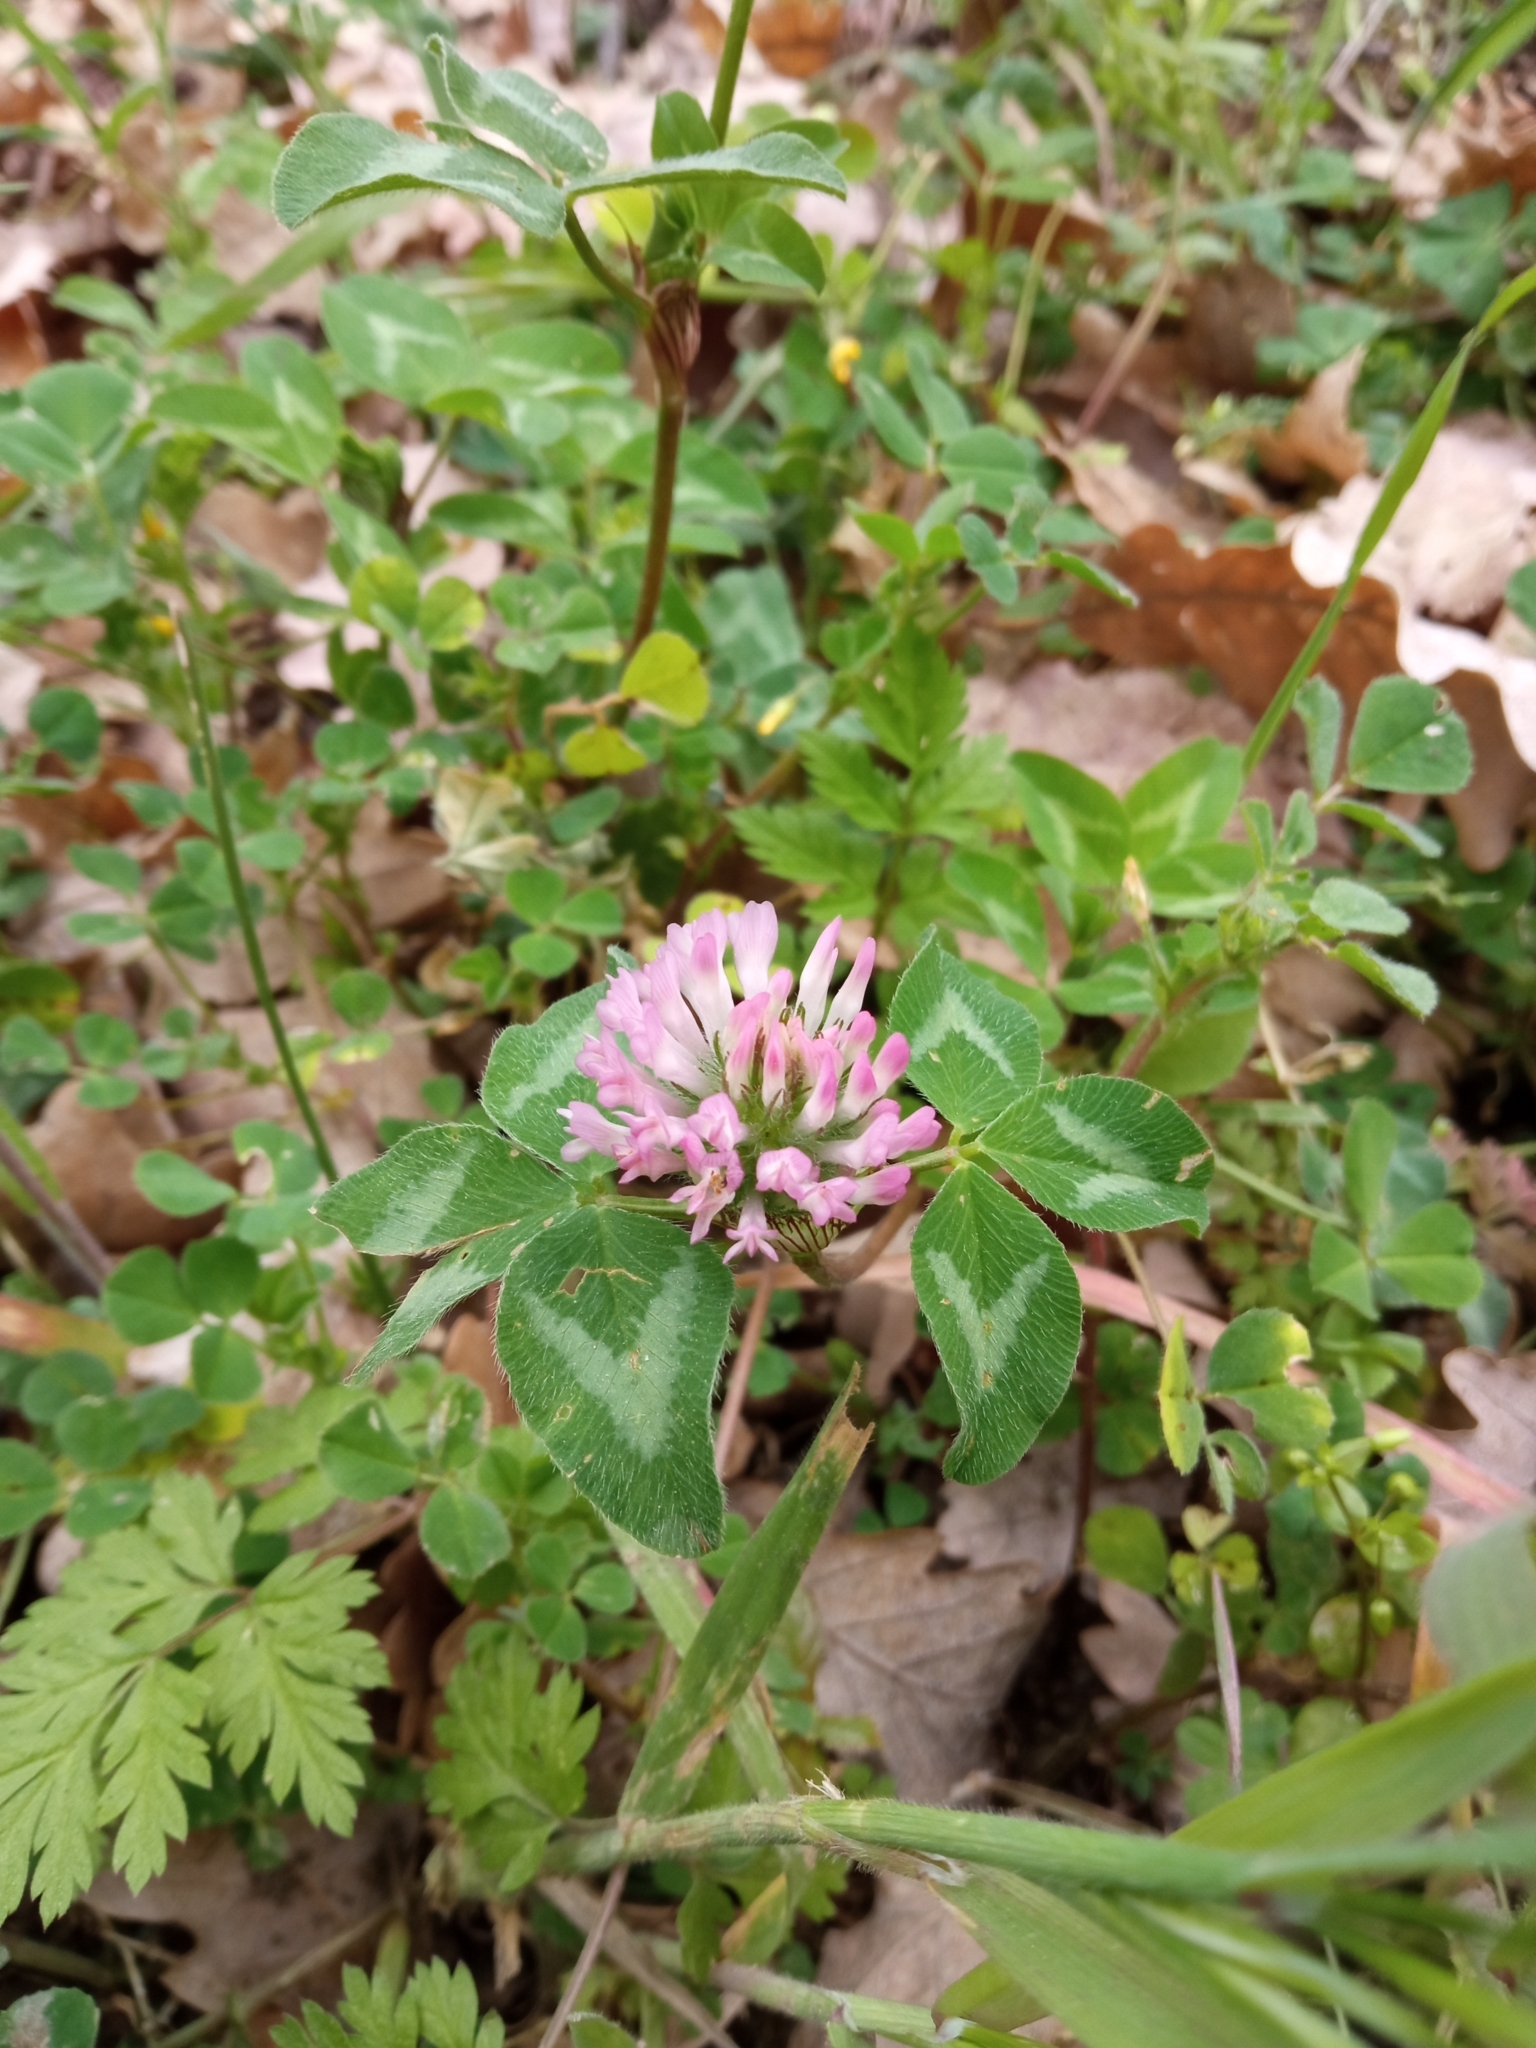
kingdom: Plantae
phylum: Tracheophyta
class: Magnoliopsida
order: Fabales
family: Fabaceae
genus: Trifolium
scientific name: Trifolium pratense
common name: Red clover
